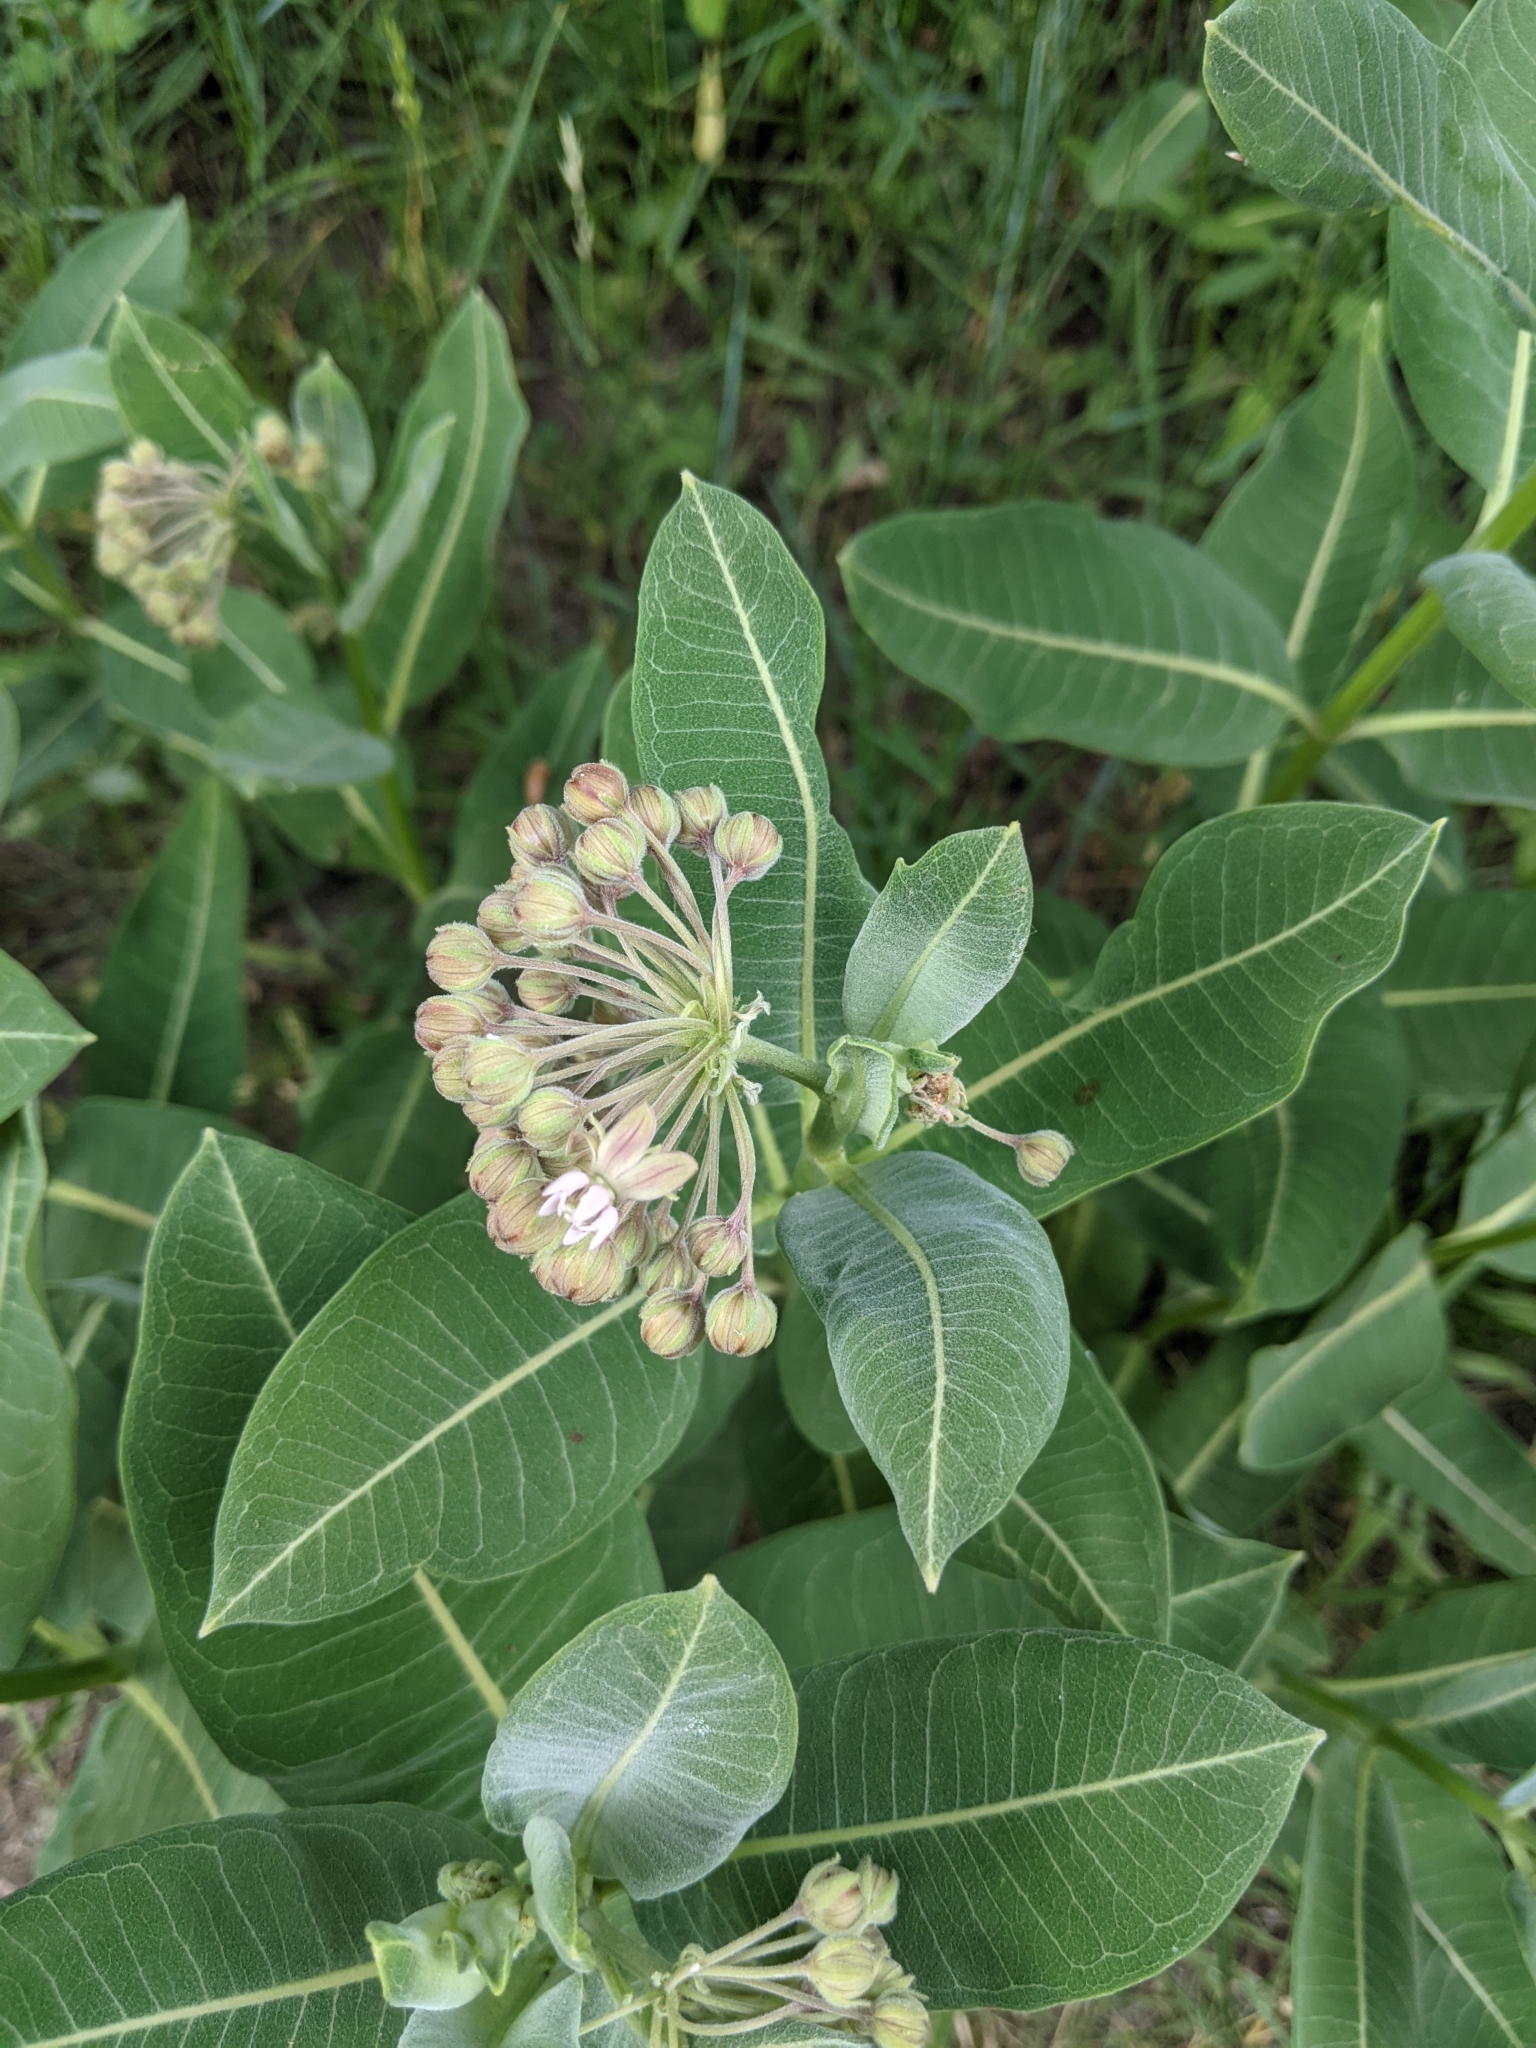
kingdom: Plantae
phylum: Tracheophyta
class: Magnoliopsida
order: Gentianales
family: Apocynaceae
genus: Asclepias
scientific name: Asclepias syriaca
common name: Common milkweed
